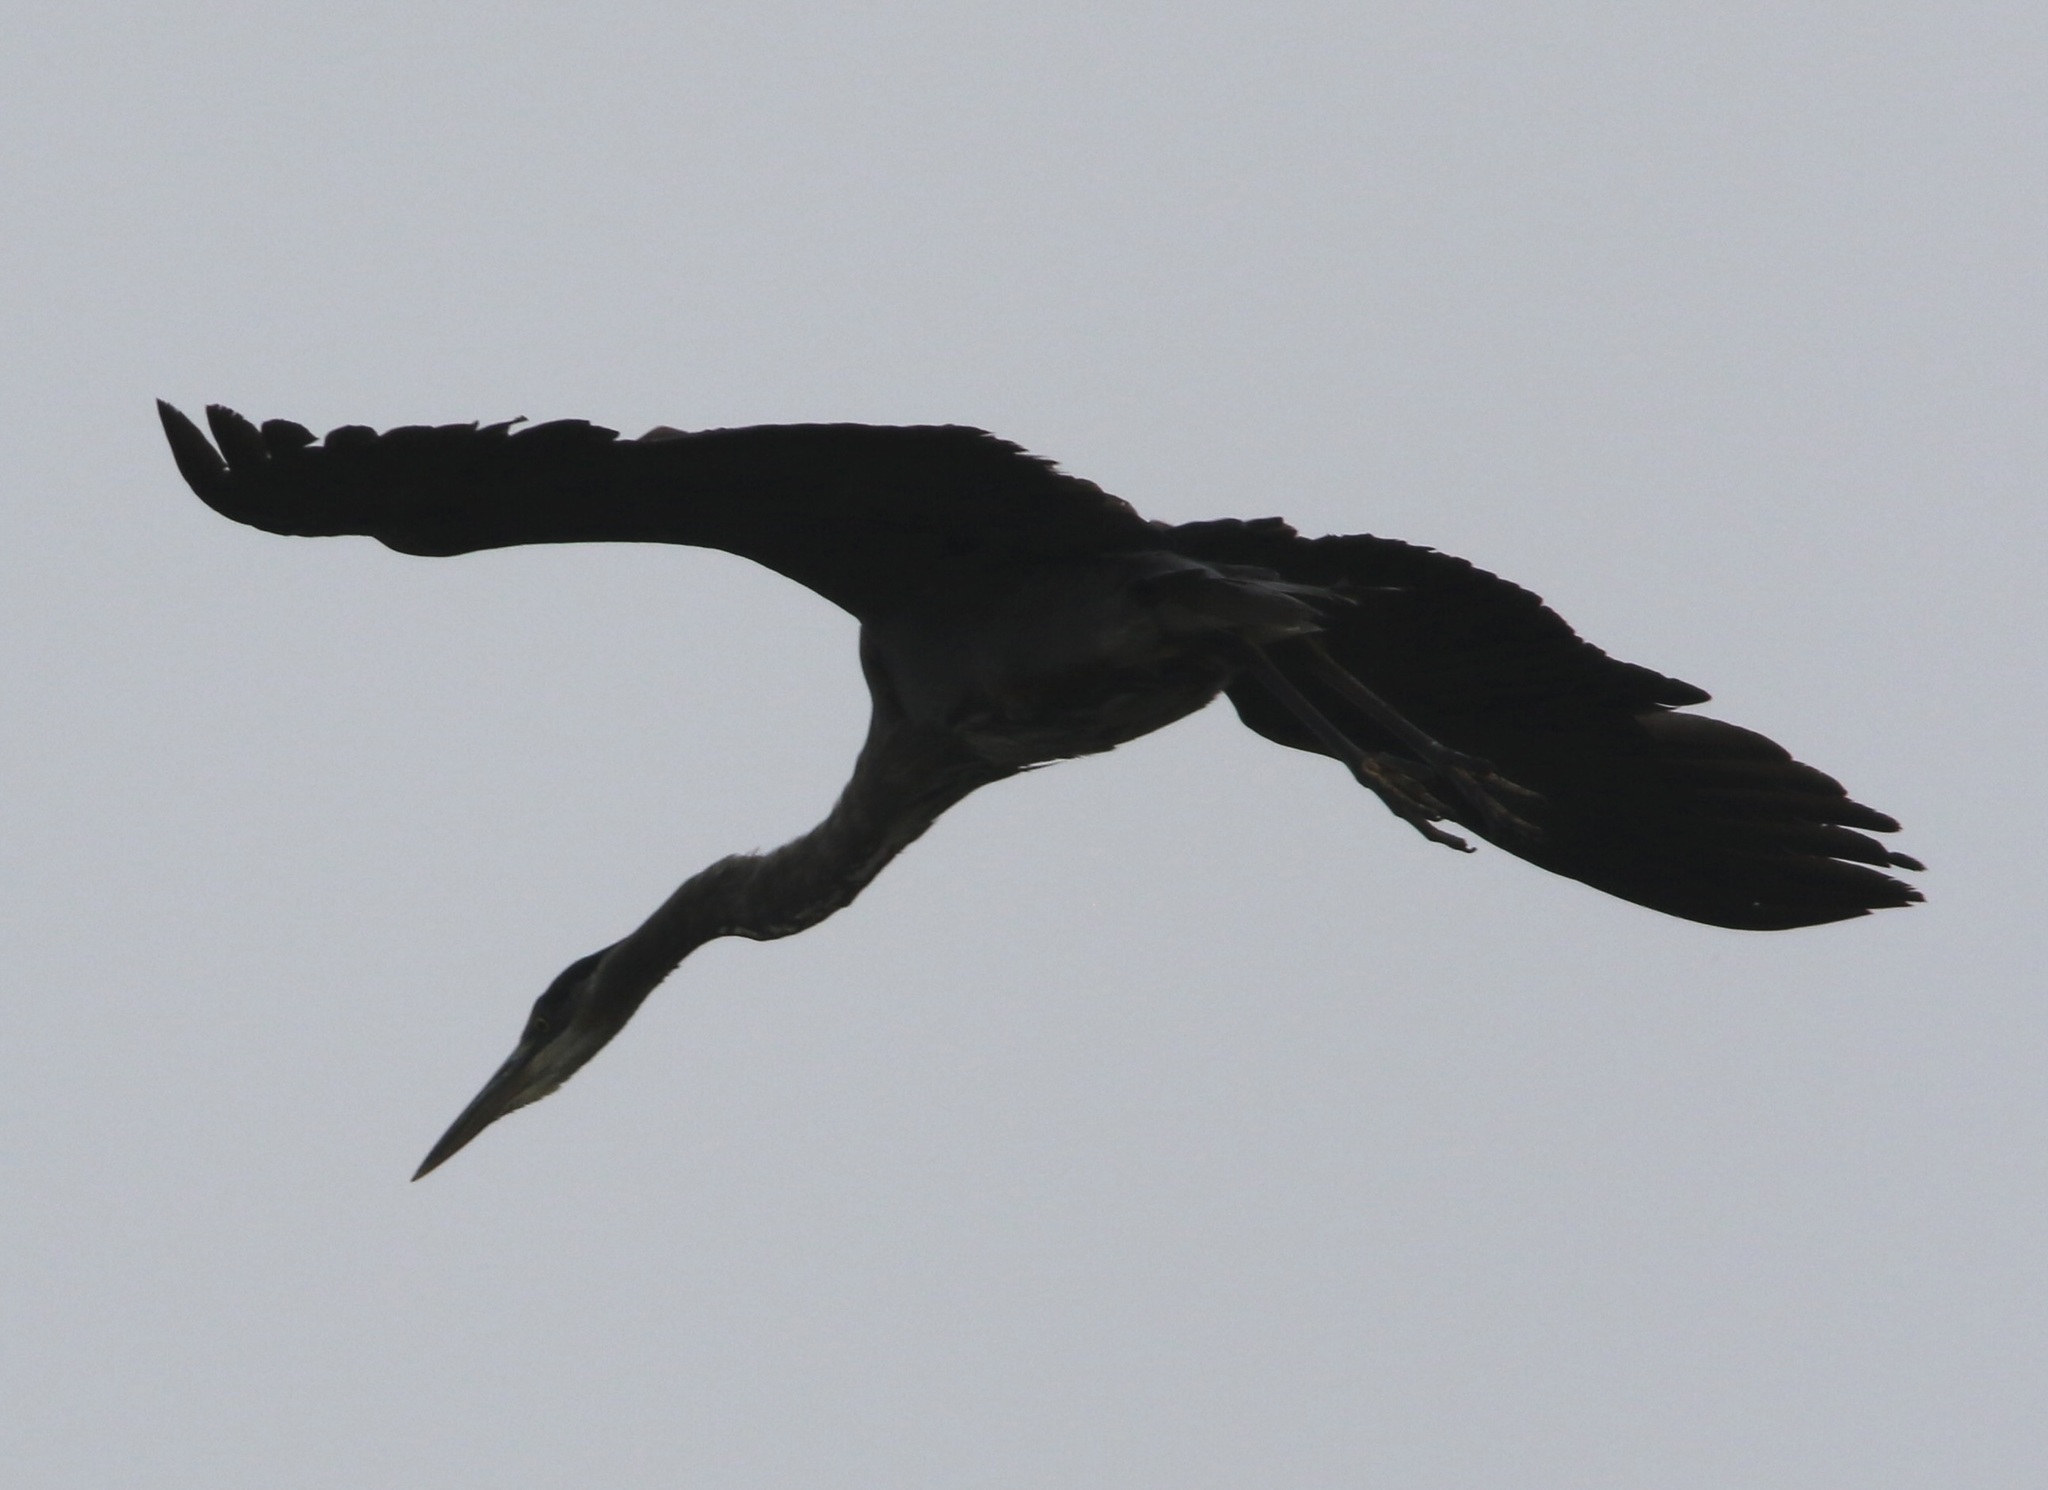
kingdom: Animalia
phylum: Chordata
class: Aves
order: Pelecaniformes
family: Ardeidae
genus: Ardea
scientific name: Ardea herodias
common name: Great blue heron
